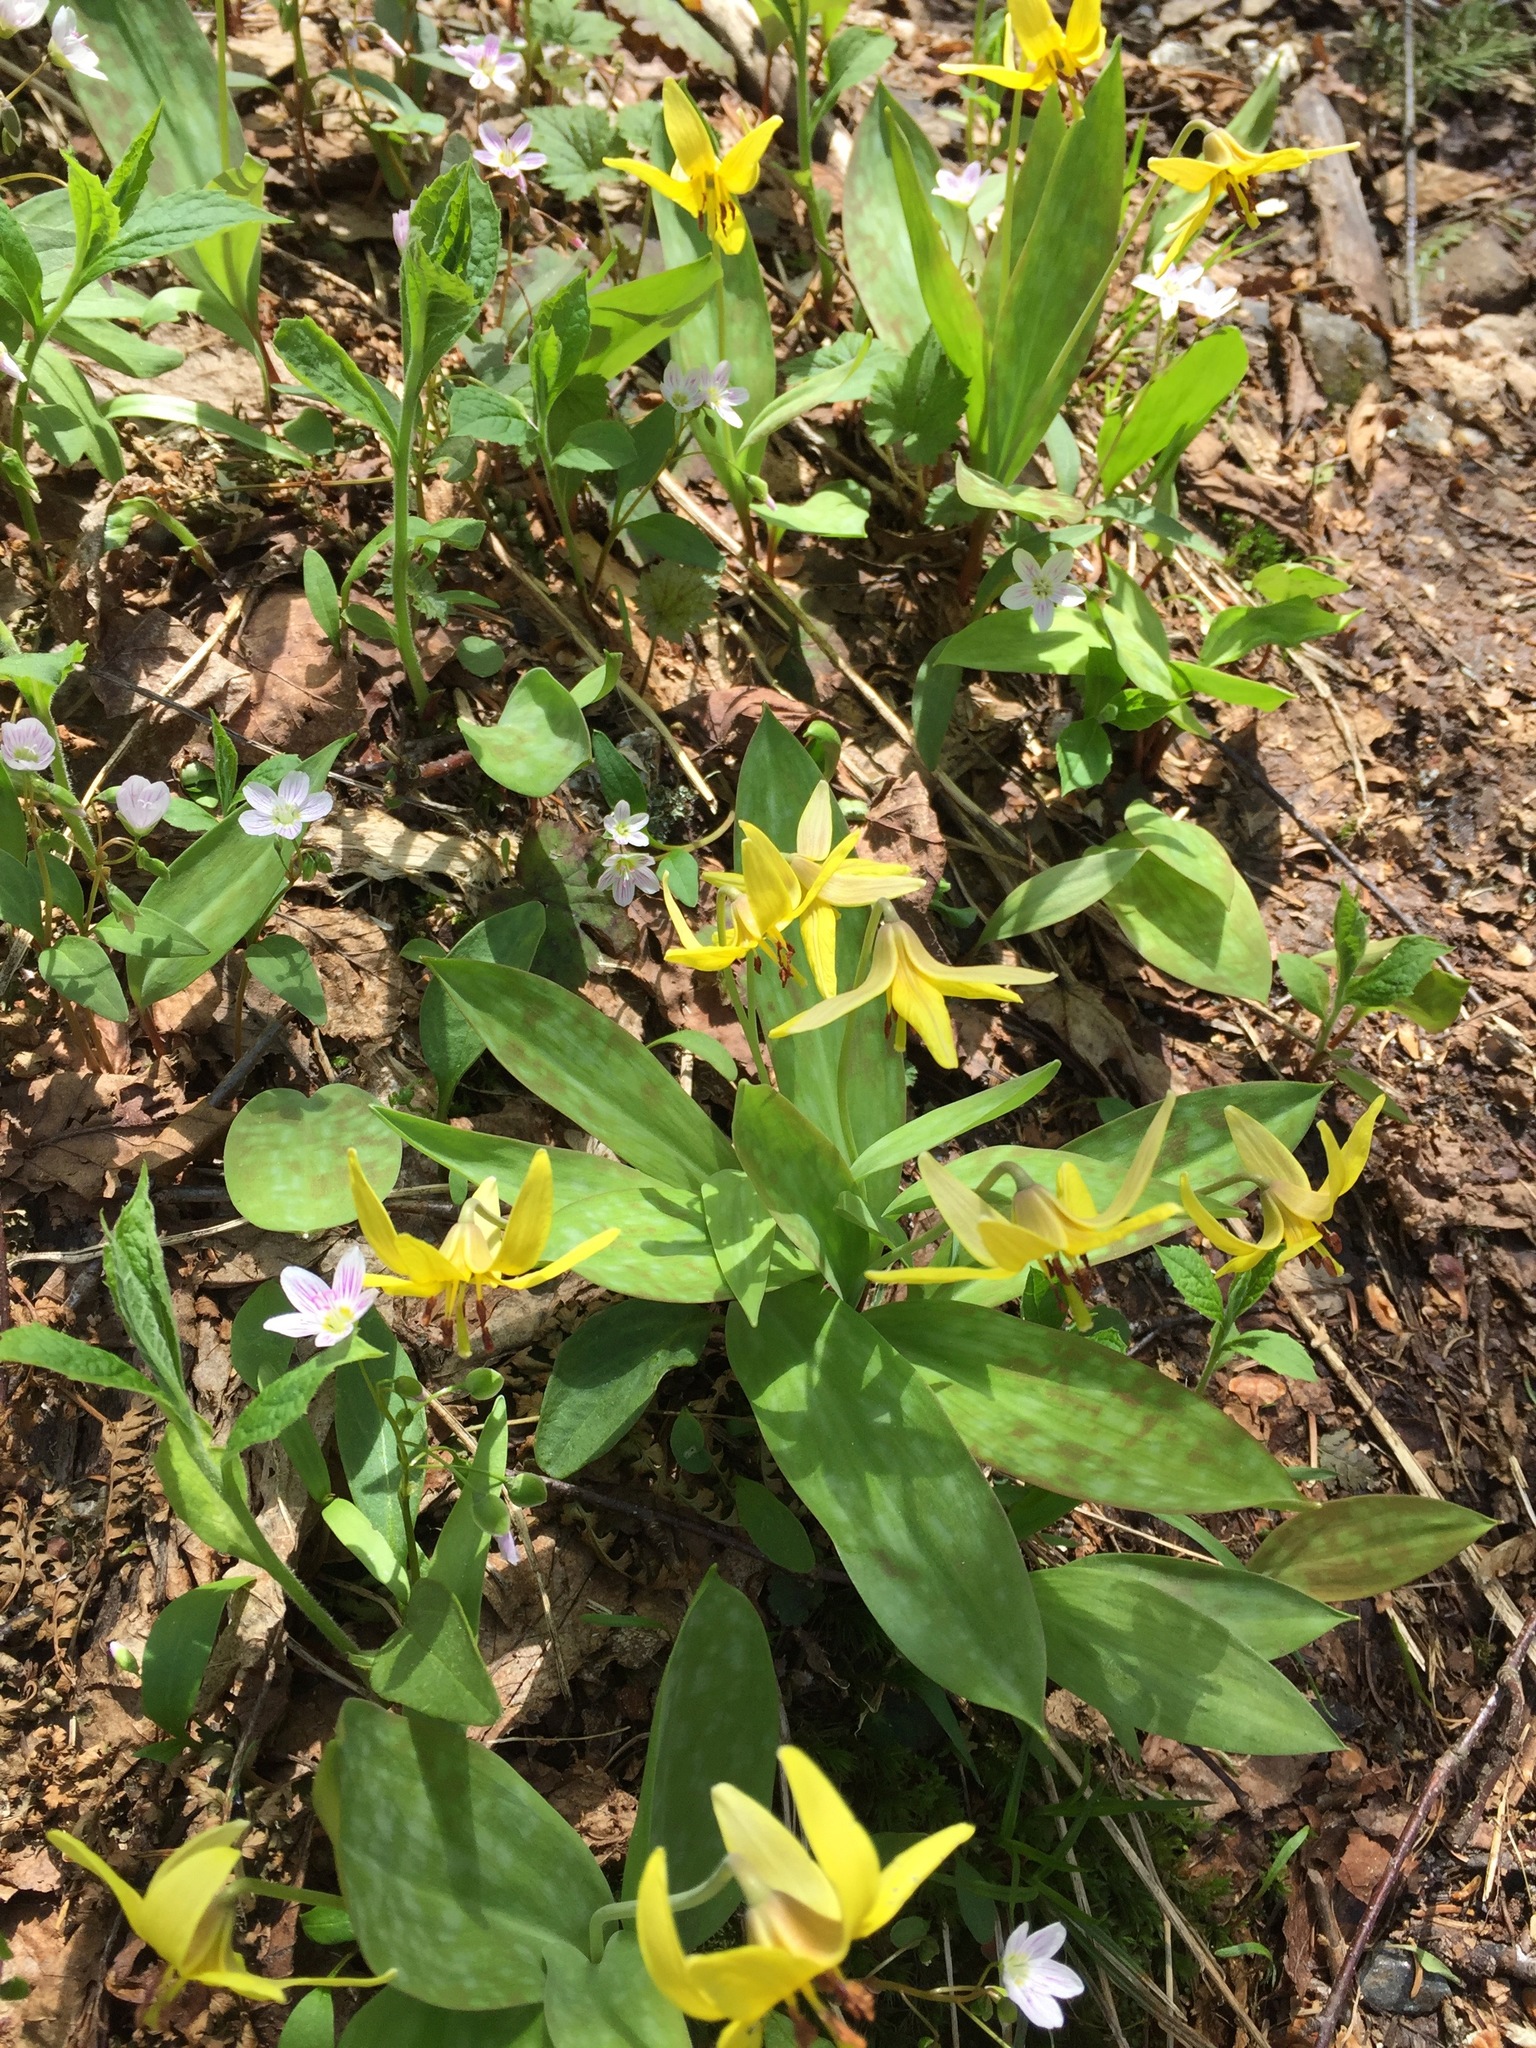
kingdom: Plantae
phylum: Tracheophyta
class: Liliopsida
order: Liliales
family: Liliaceae
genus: Erythronium
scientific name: Erythronium americanum
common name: Yellow adder's-tongue
